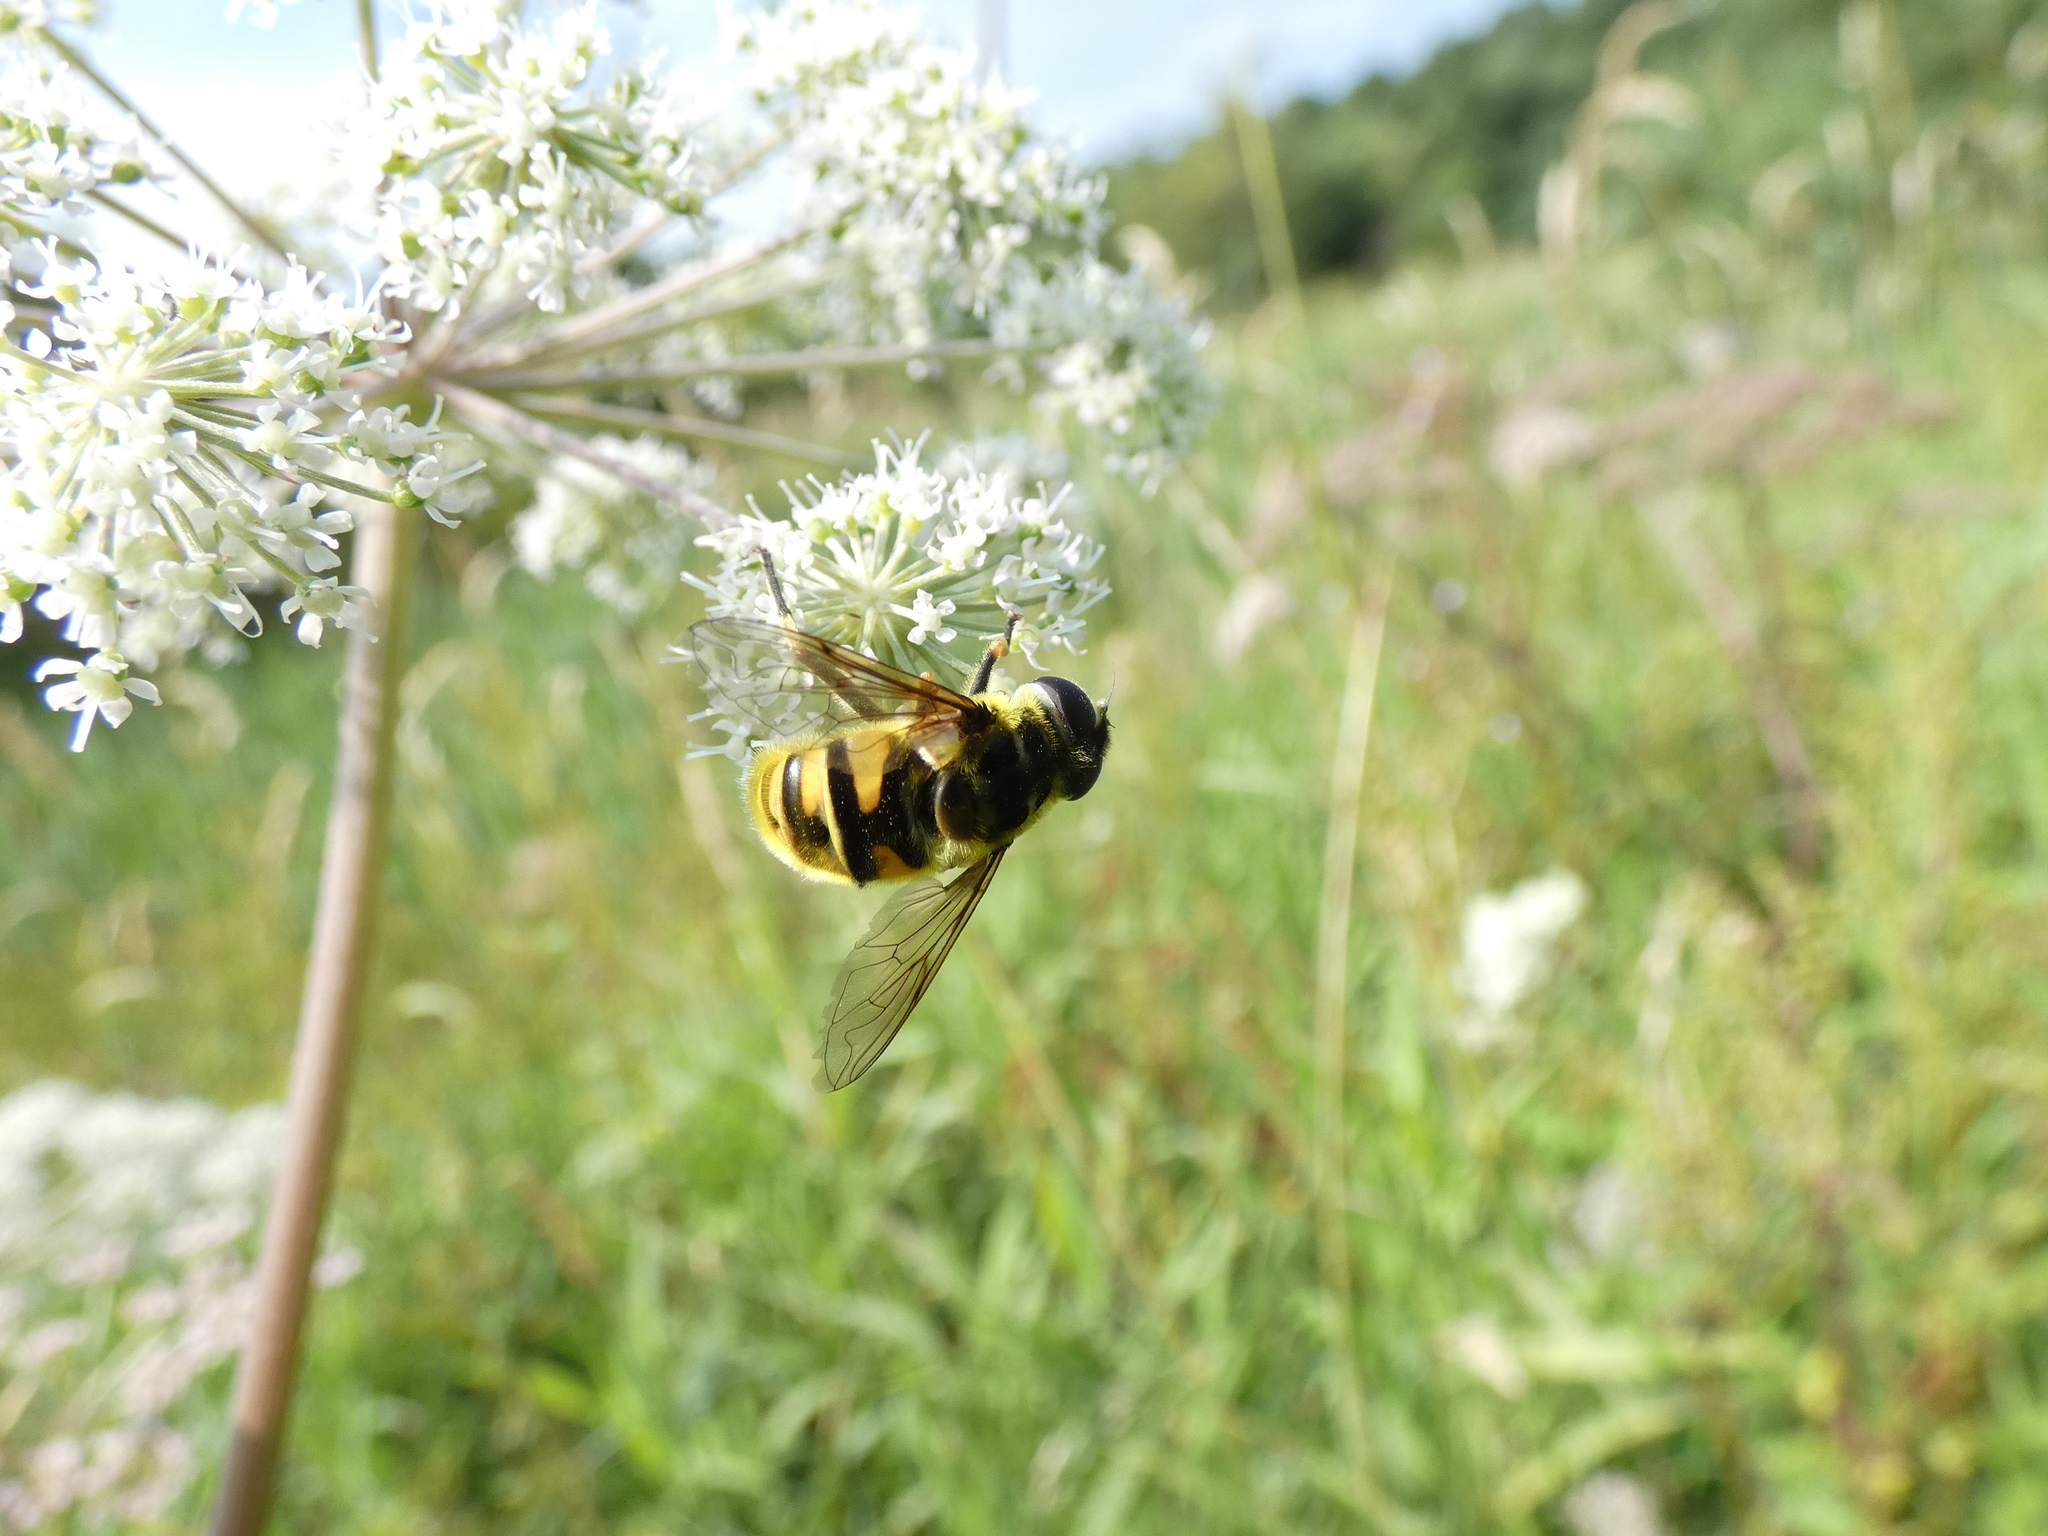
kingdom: Animalia
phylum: Arthropoda
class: Insecta
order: Diptera
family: Syrphidae
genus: Myathropa
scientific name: Myathropa florea
